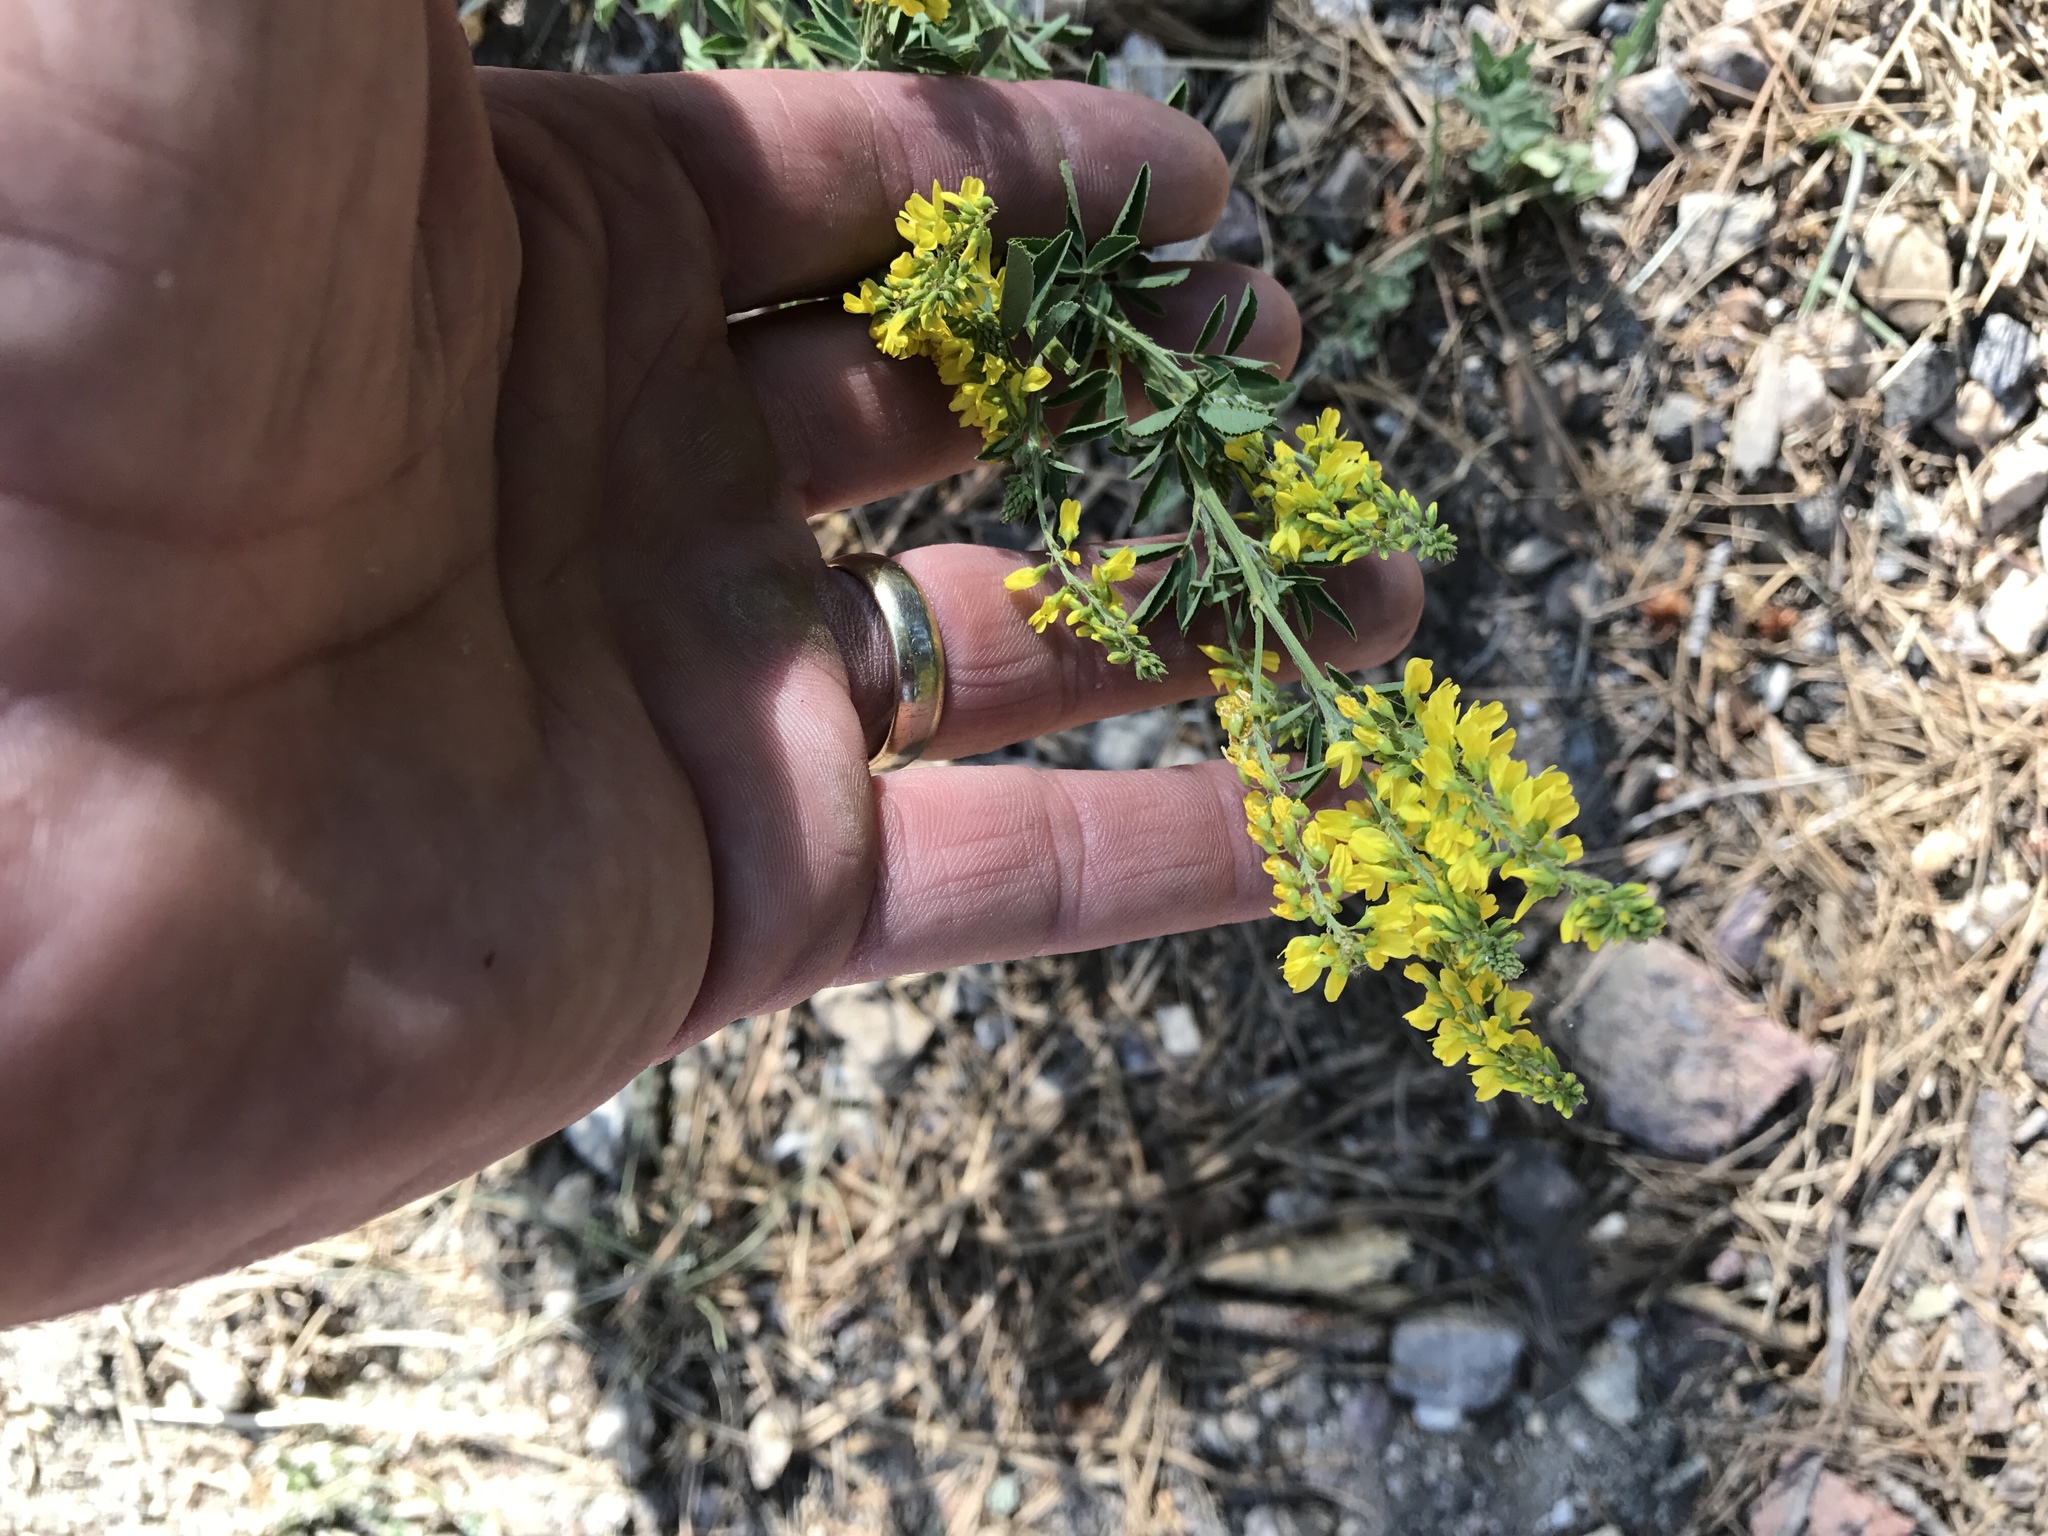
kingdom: Plantae
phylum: Tracheophyta
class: Magnoliopsida
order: Fabales
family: Fabaceae
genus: Melilotus
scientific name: Melilotus officinalis
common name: Sweetclover
